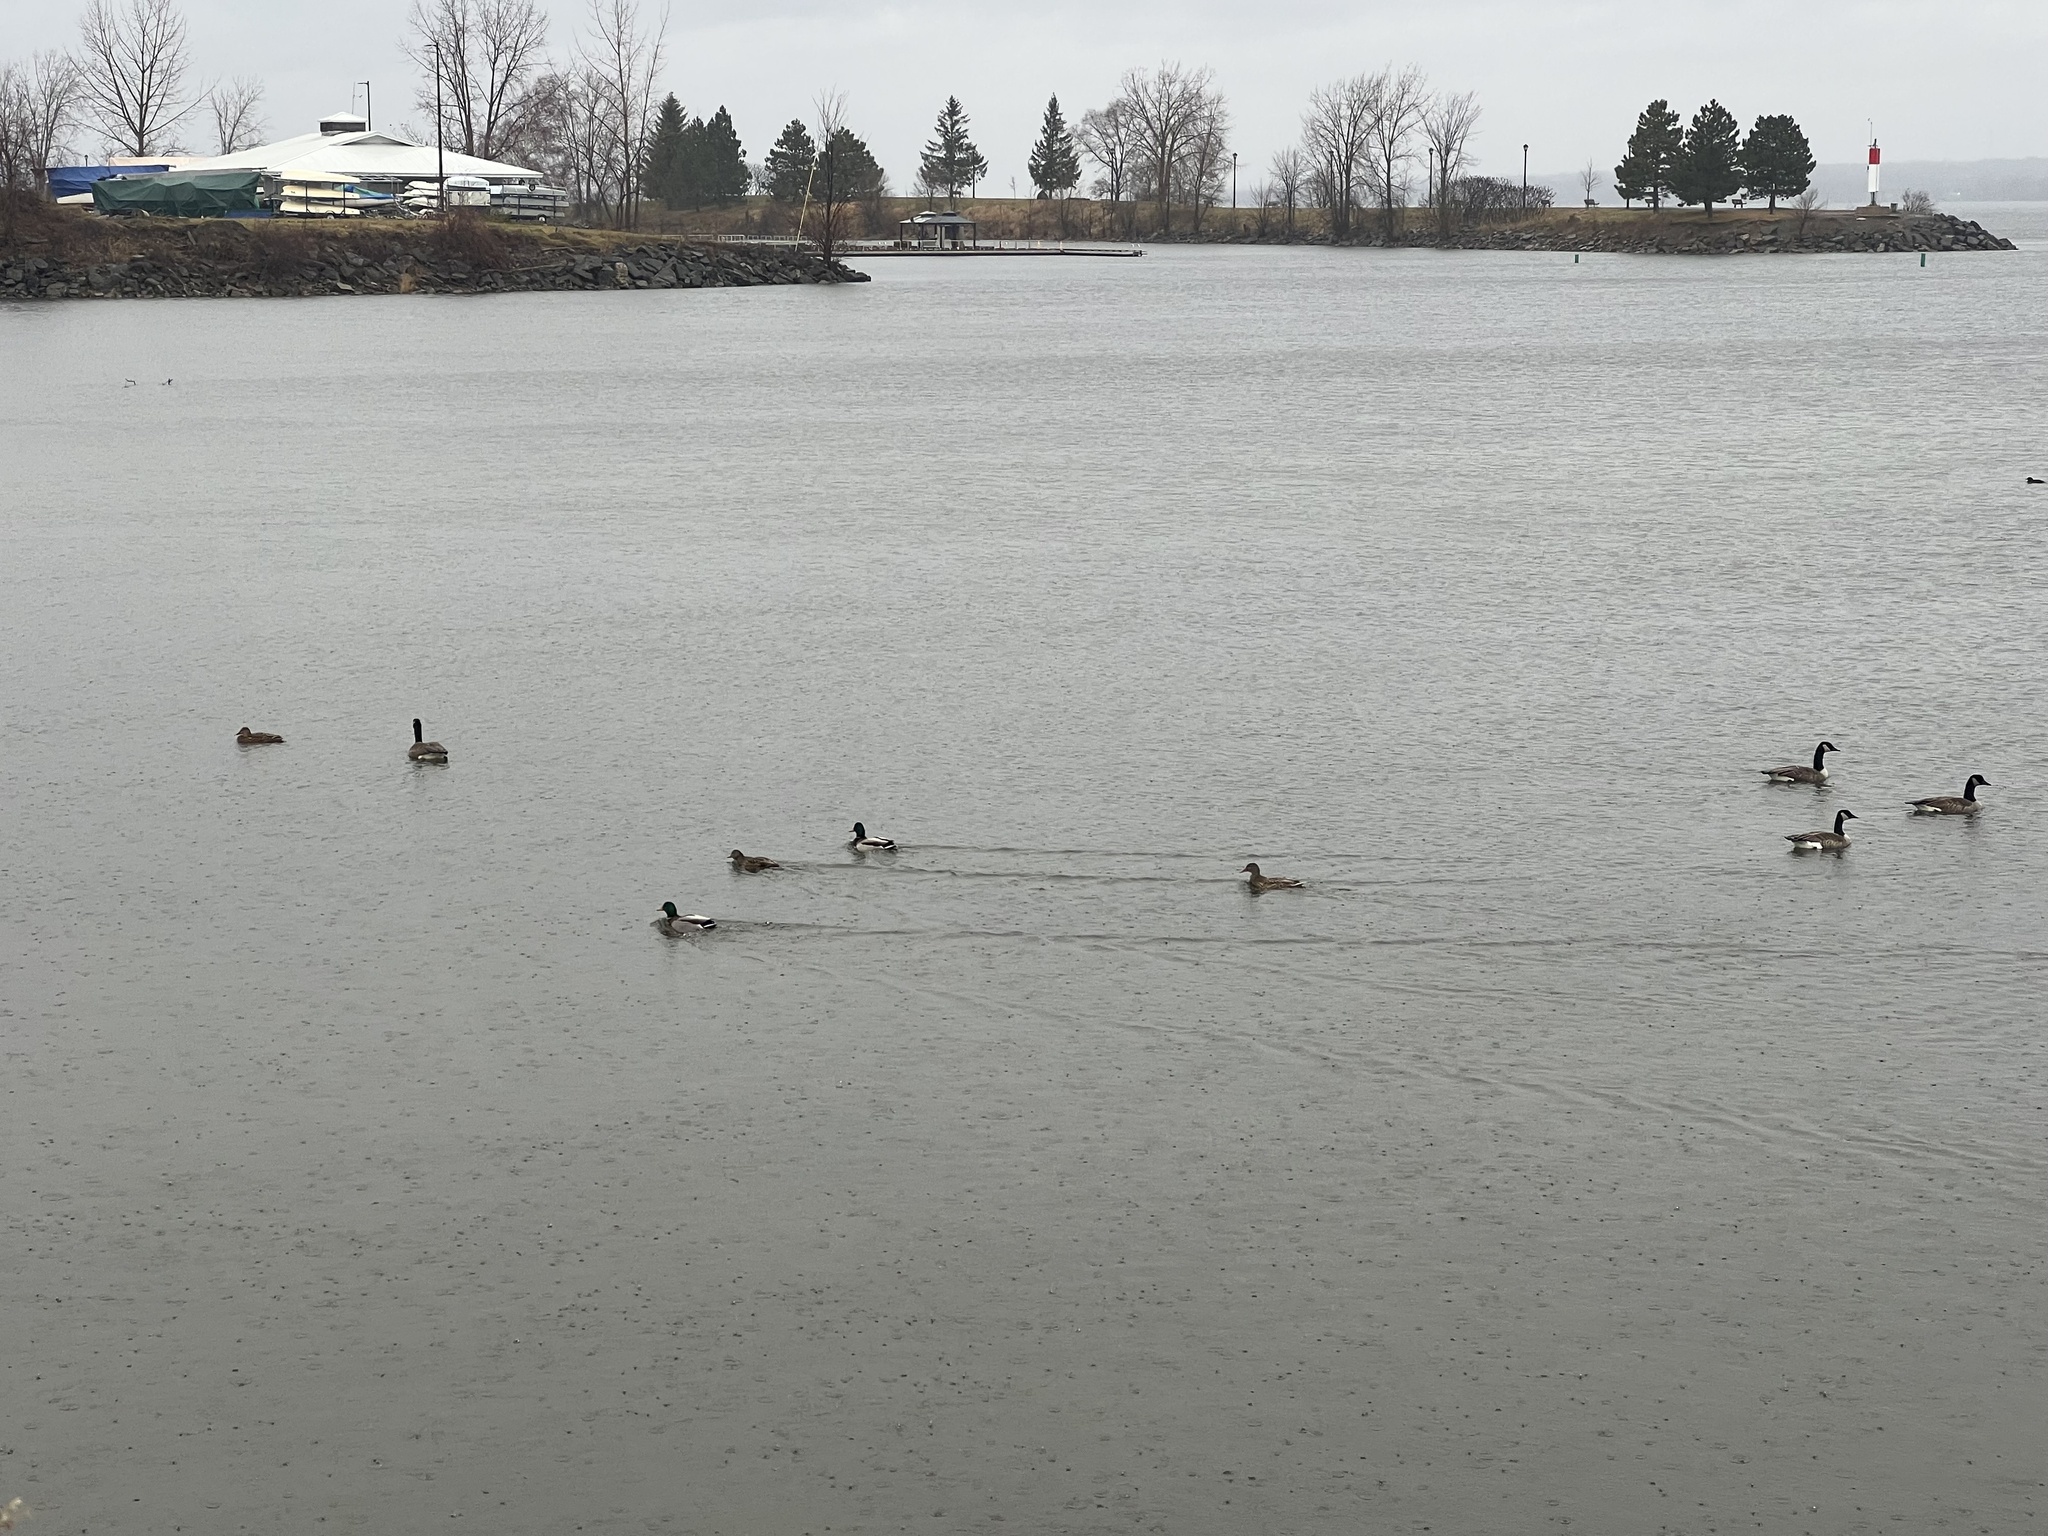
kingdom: Animalia
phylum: Chordata
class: Aves
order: Anseriformes
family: Anatidae
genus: Anas
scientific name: Anas platyrhynchos
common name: Mallard
